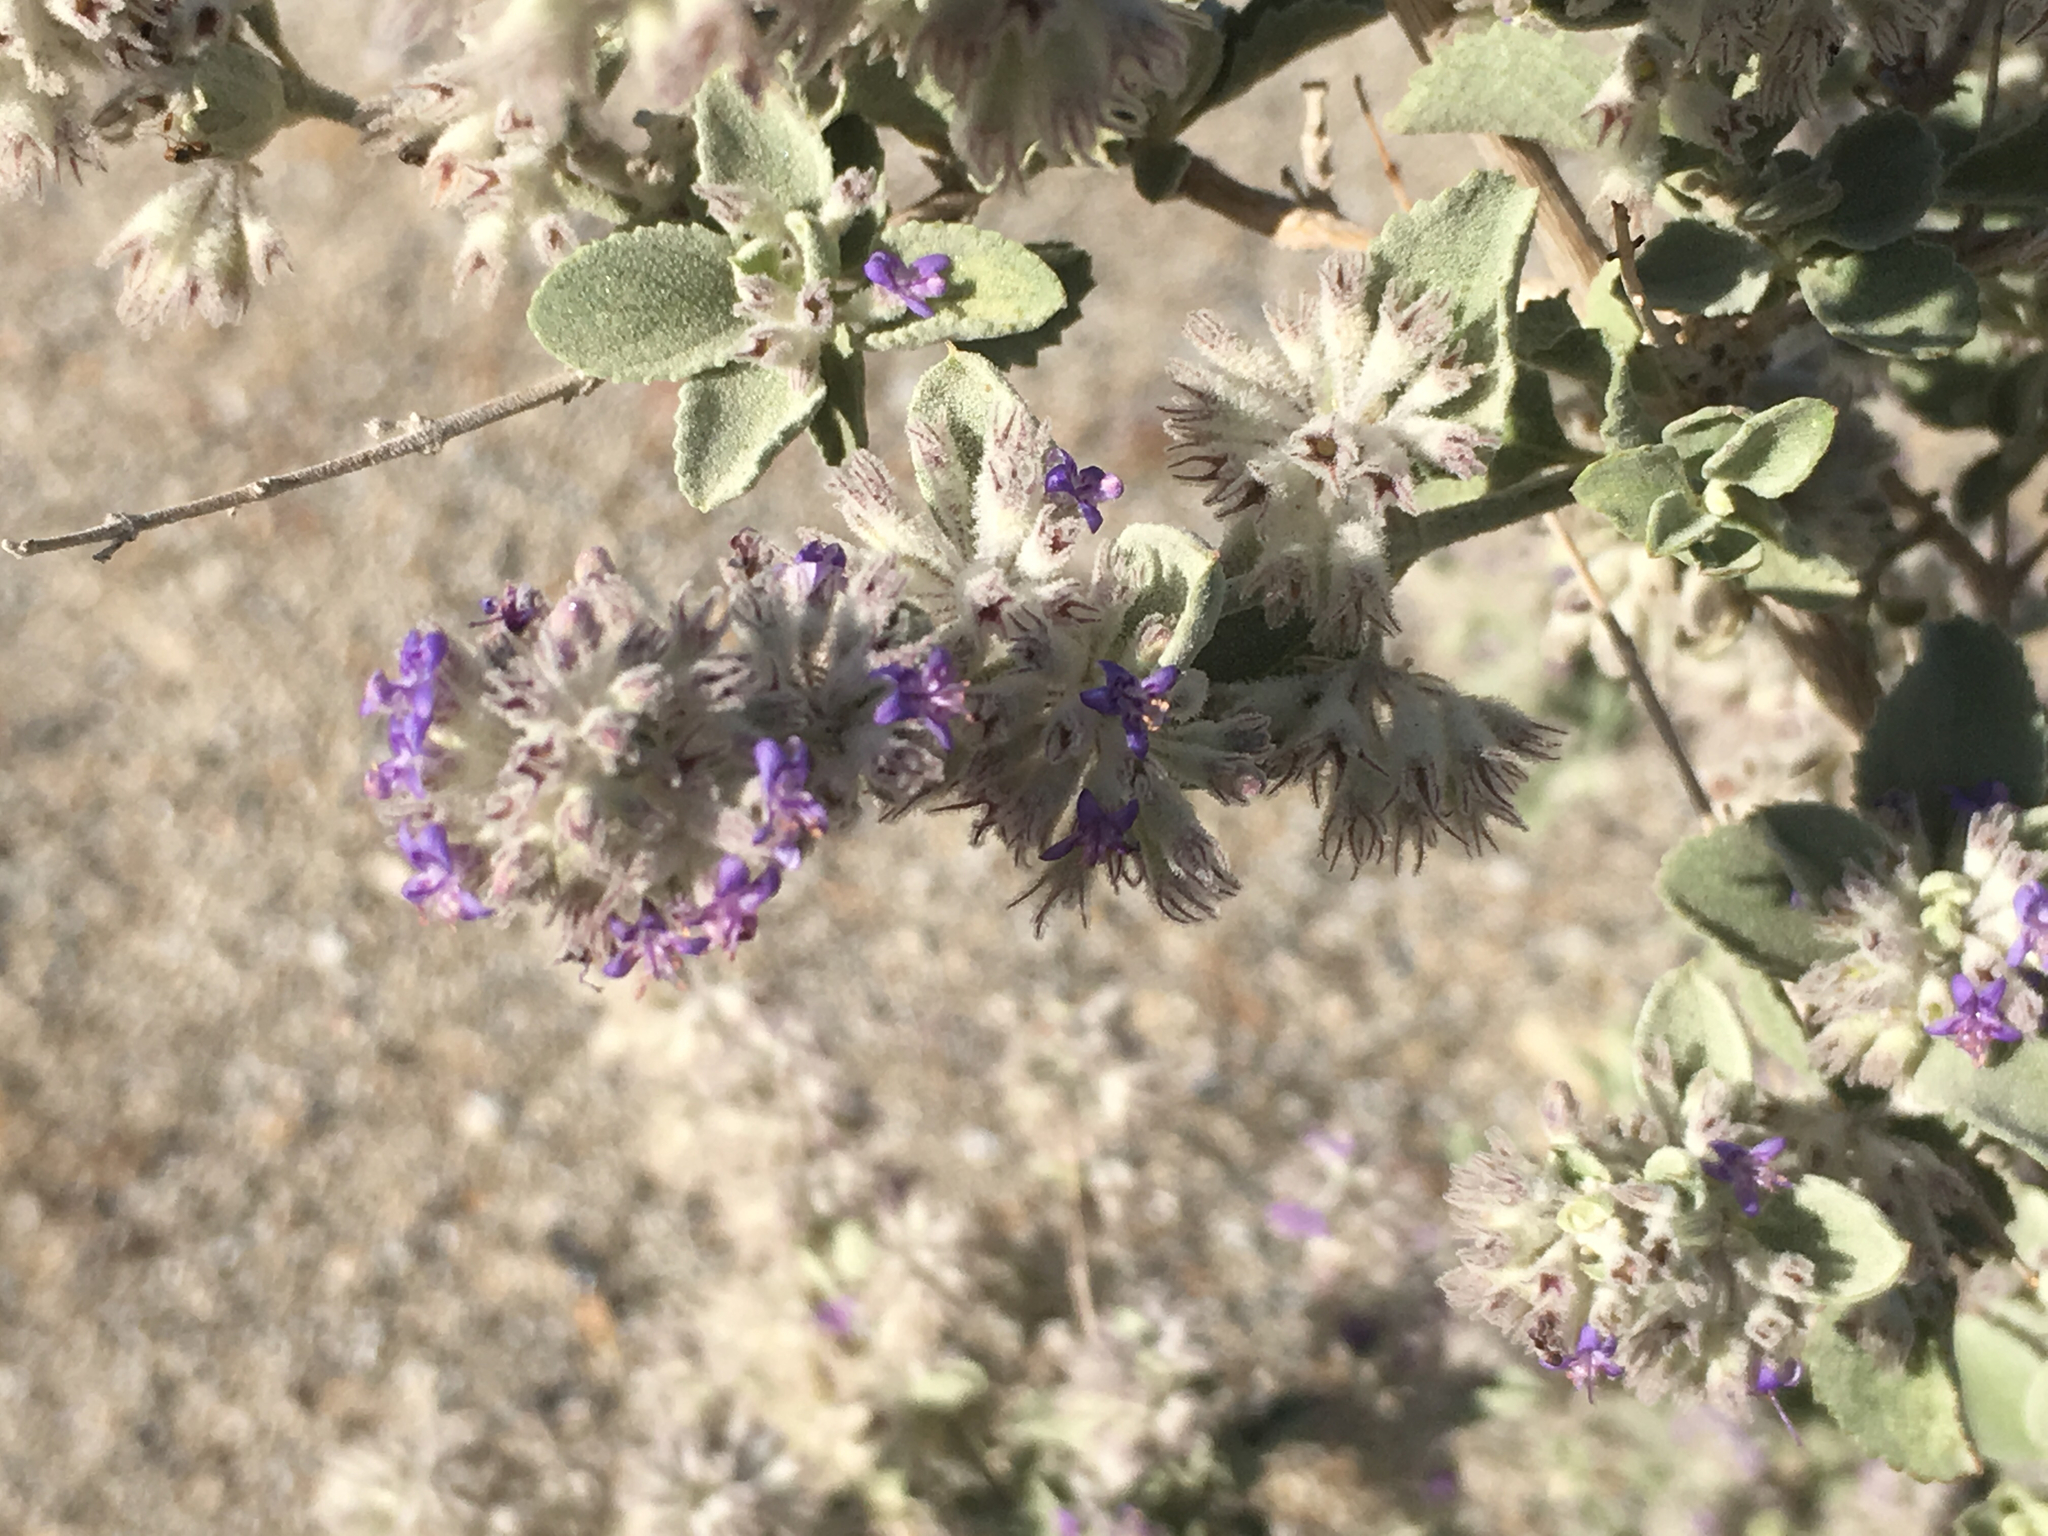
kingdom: Plantae
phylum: Tracheophyta
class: Magnoliopsida
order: Lamiales
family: Lamiaceae
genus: Condea
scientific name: Condea emoryi
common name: Chia
